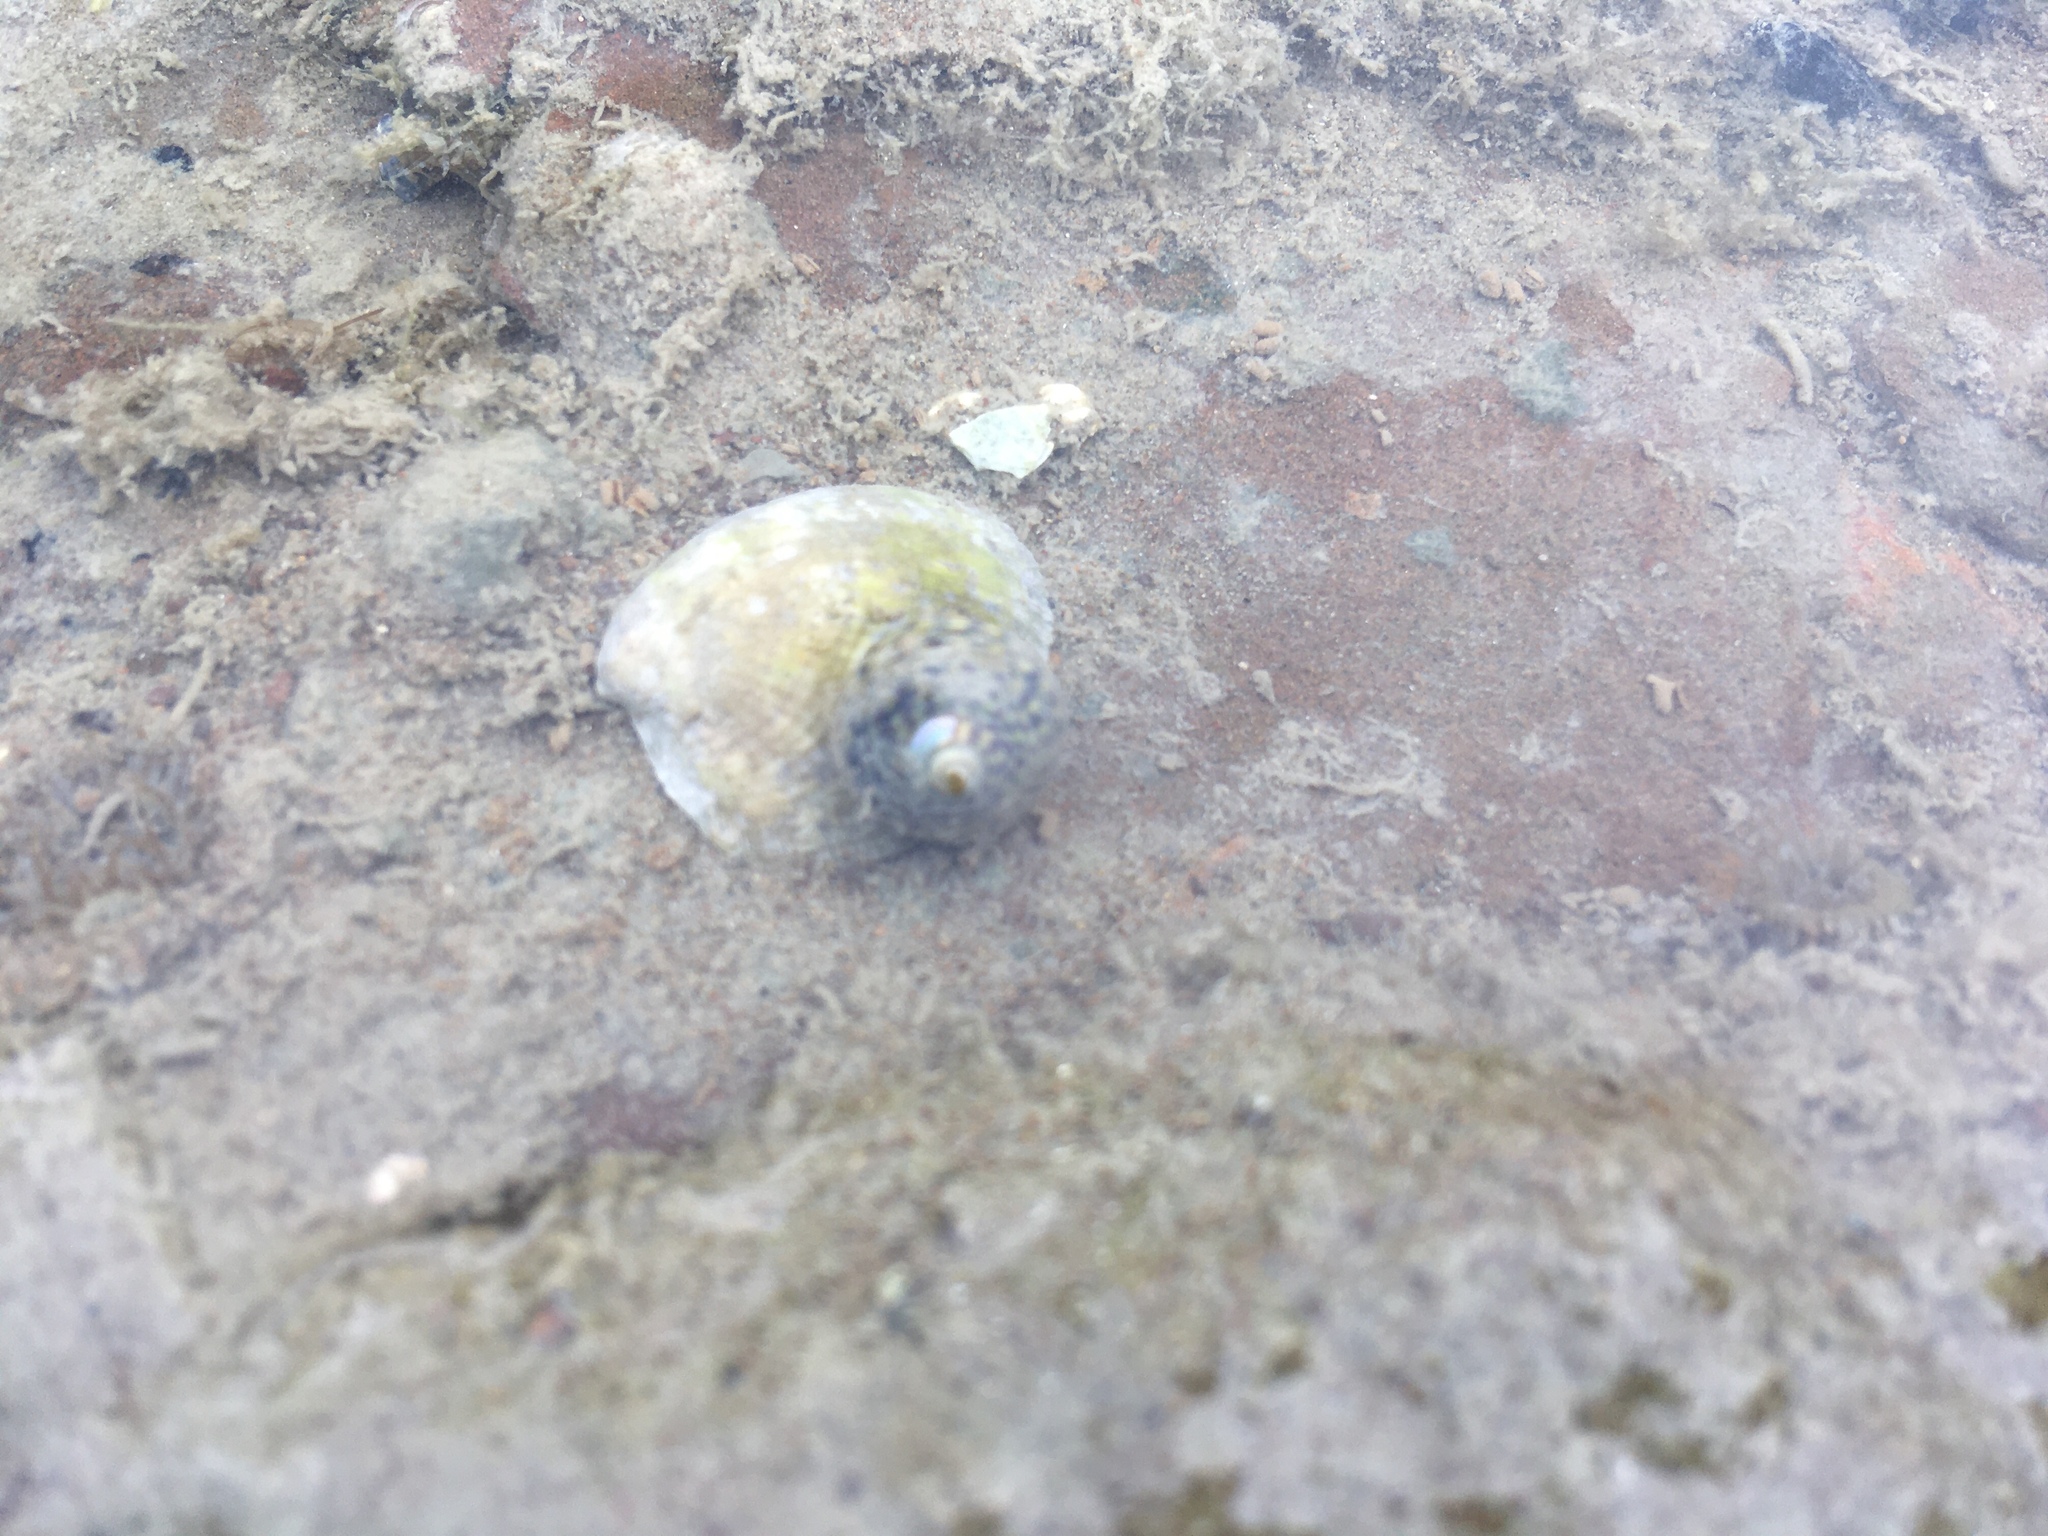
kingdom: Animalia
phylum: Mollusca
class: Gastropoda
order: Trochida
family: Trochidae
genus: Diloma
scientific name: Diloma subrostratum
